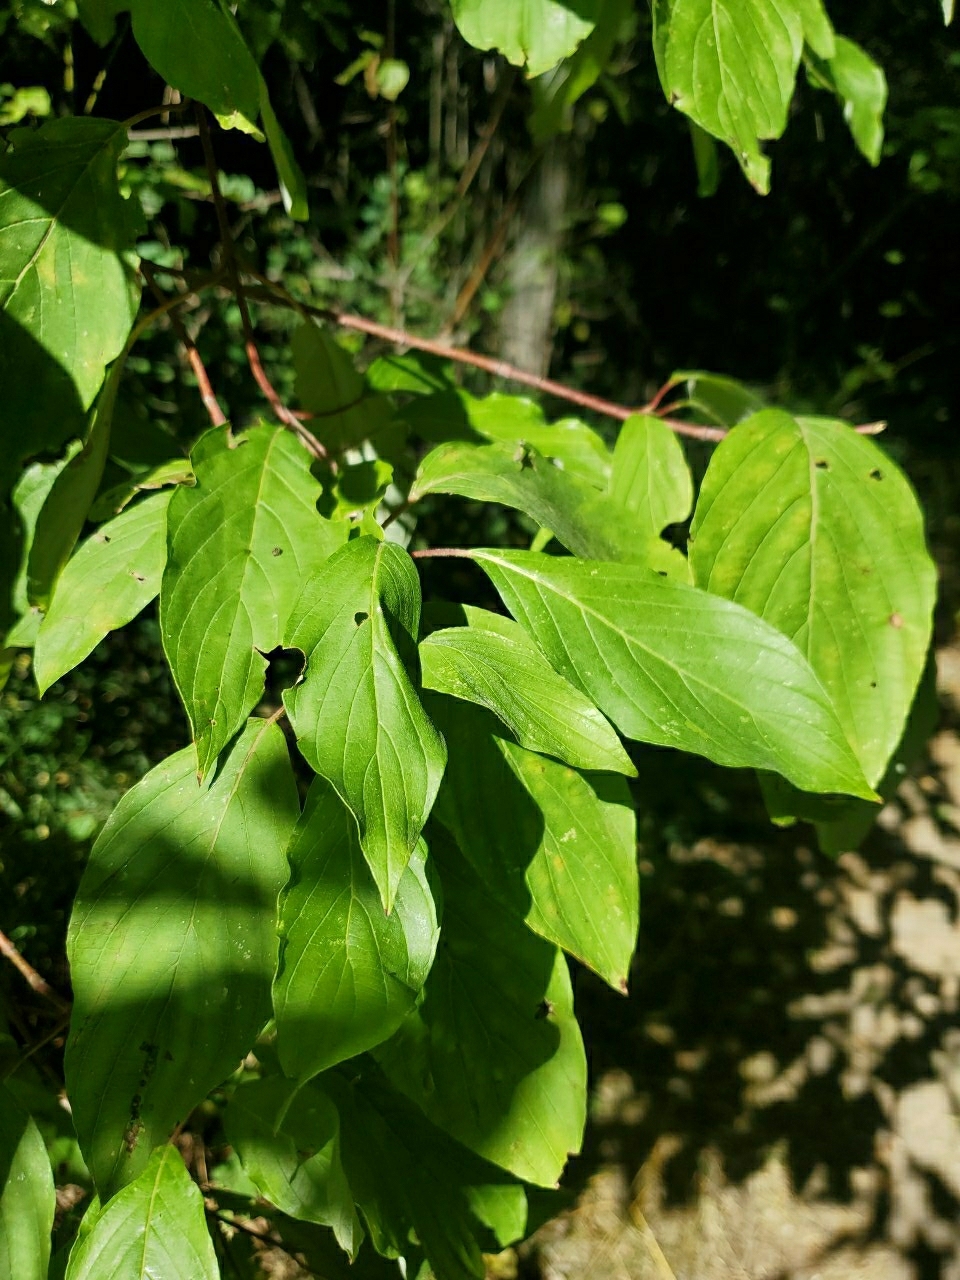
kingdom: Plantae
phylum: Tracheophyta
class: Magnoliopsida
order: Cornales
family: Cornaceae
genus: Cornus
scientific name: Cornus sericea
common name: Red-osier dogwood
